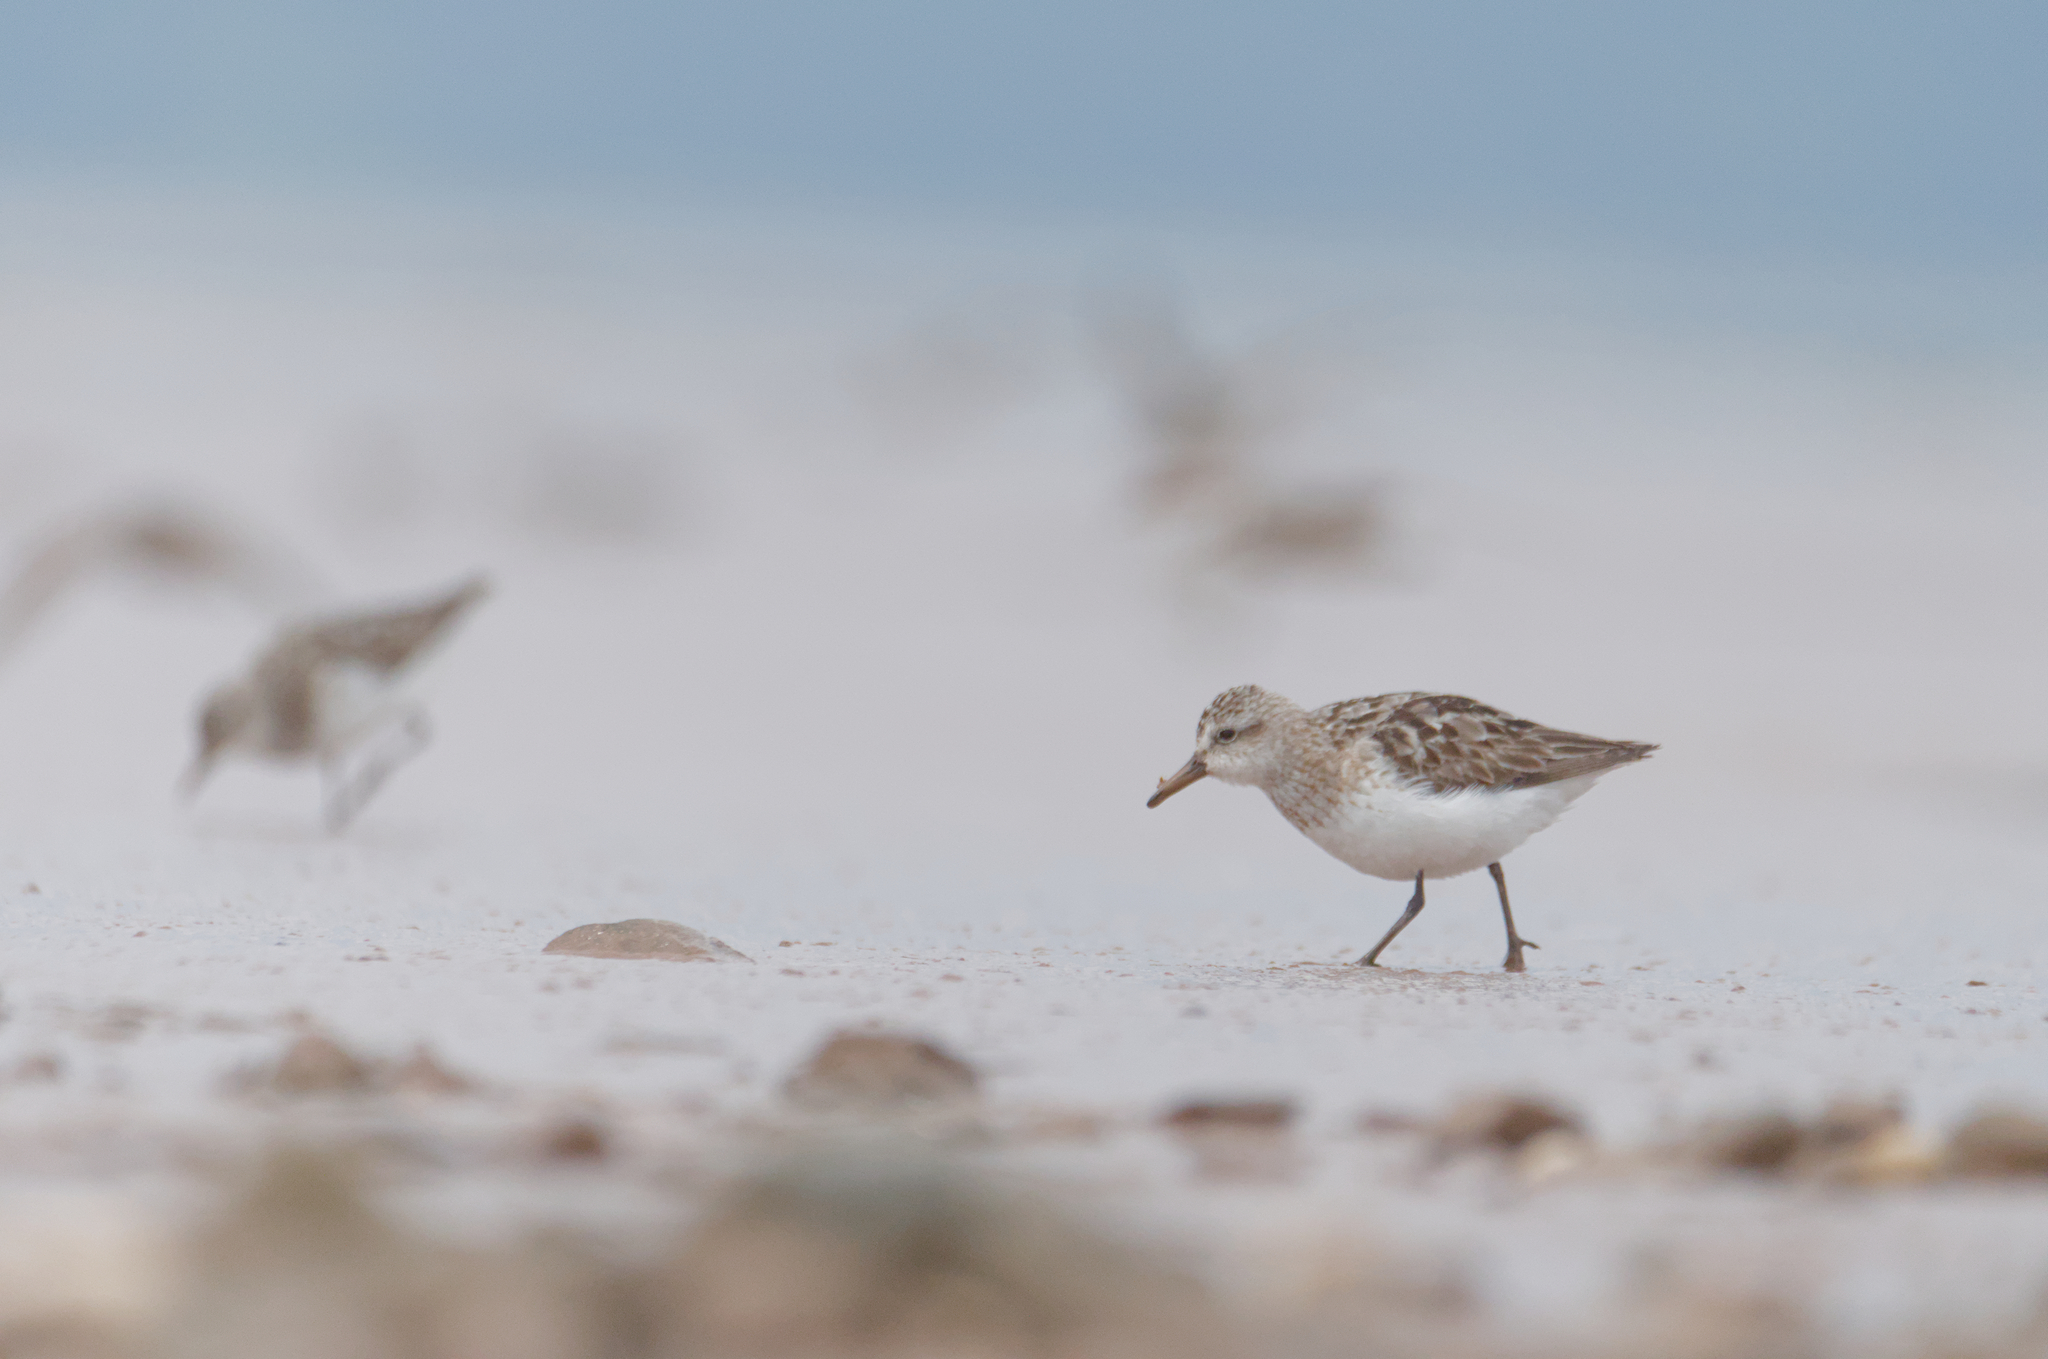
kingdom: Animalia
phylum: Chordata
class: Aves
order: Charadriiformes
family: Scolopacidae
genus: Calidris
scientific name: Calidris pusilla
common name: Semipalmated sandpiper
